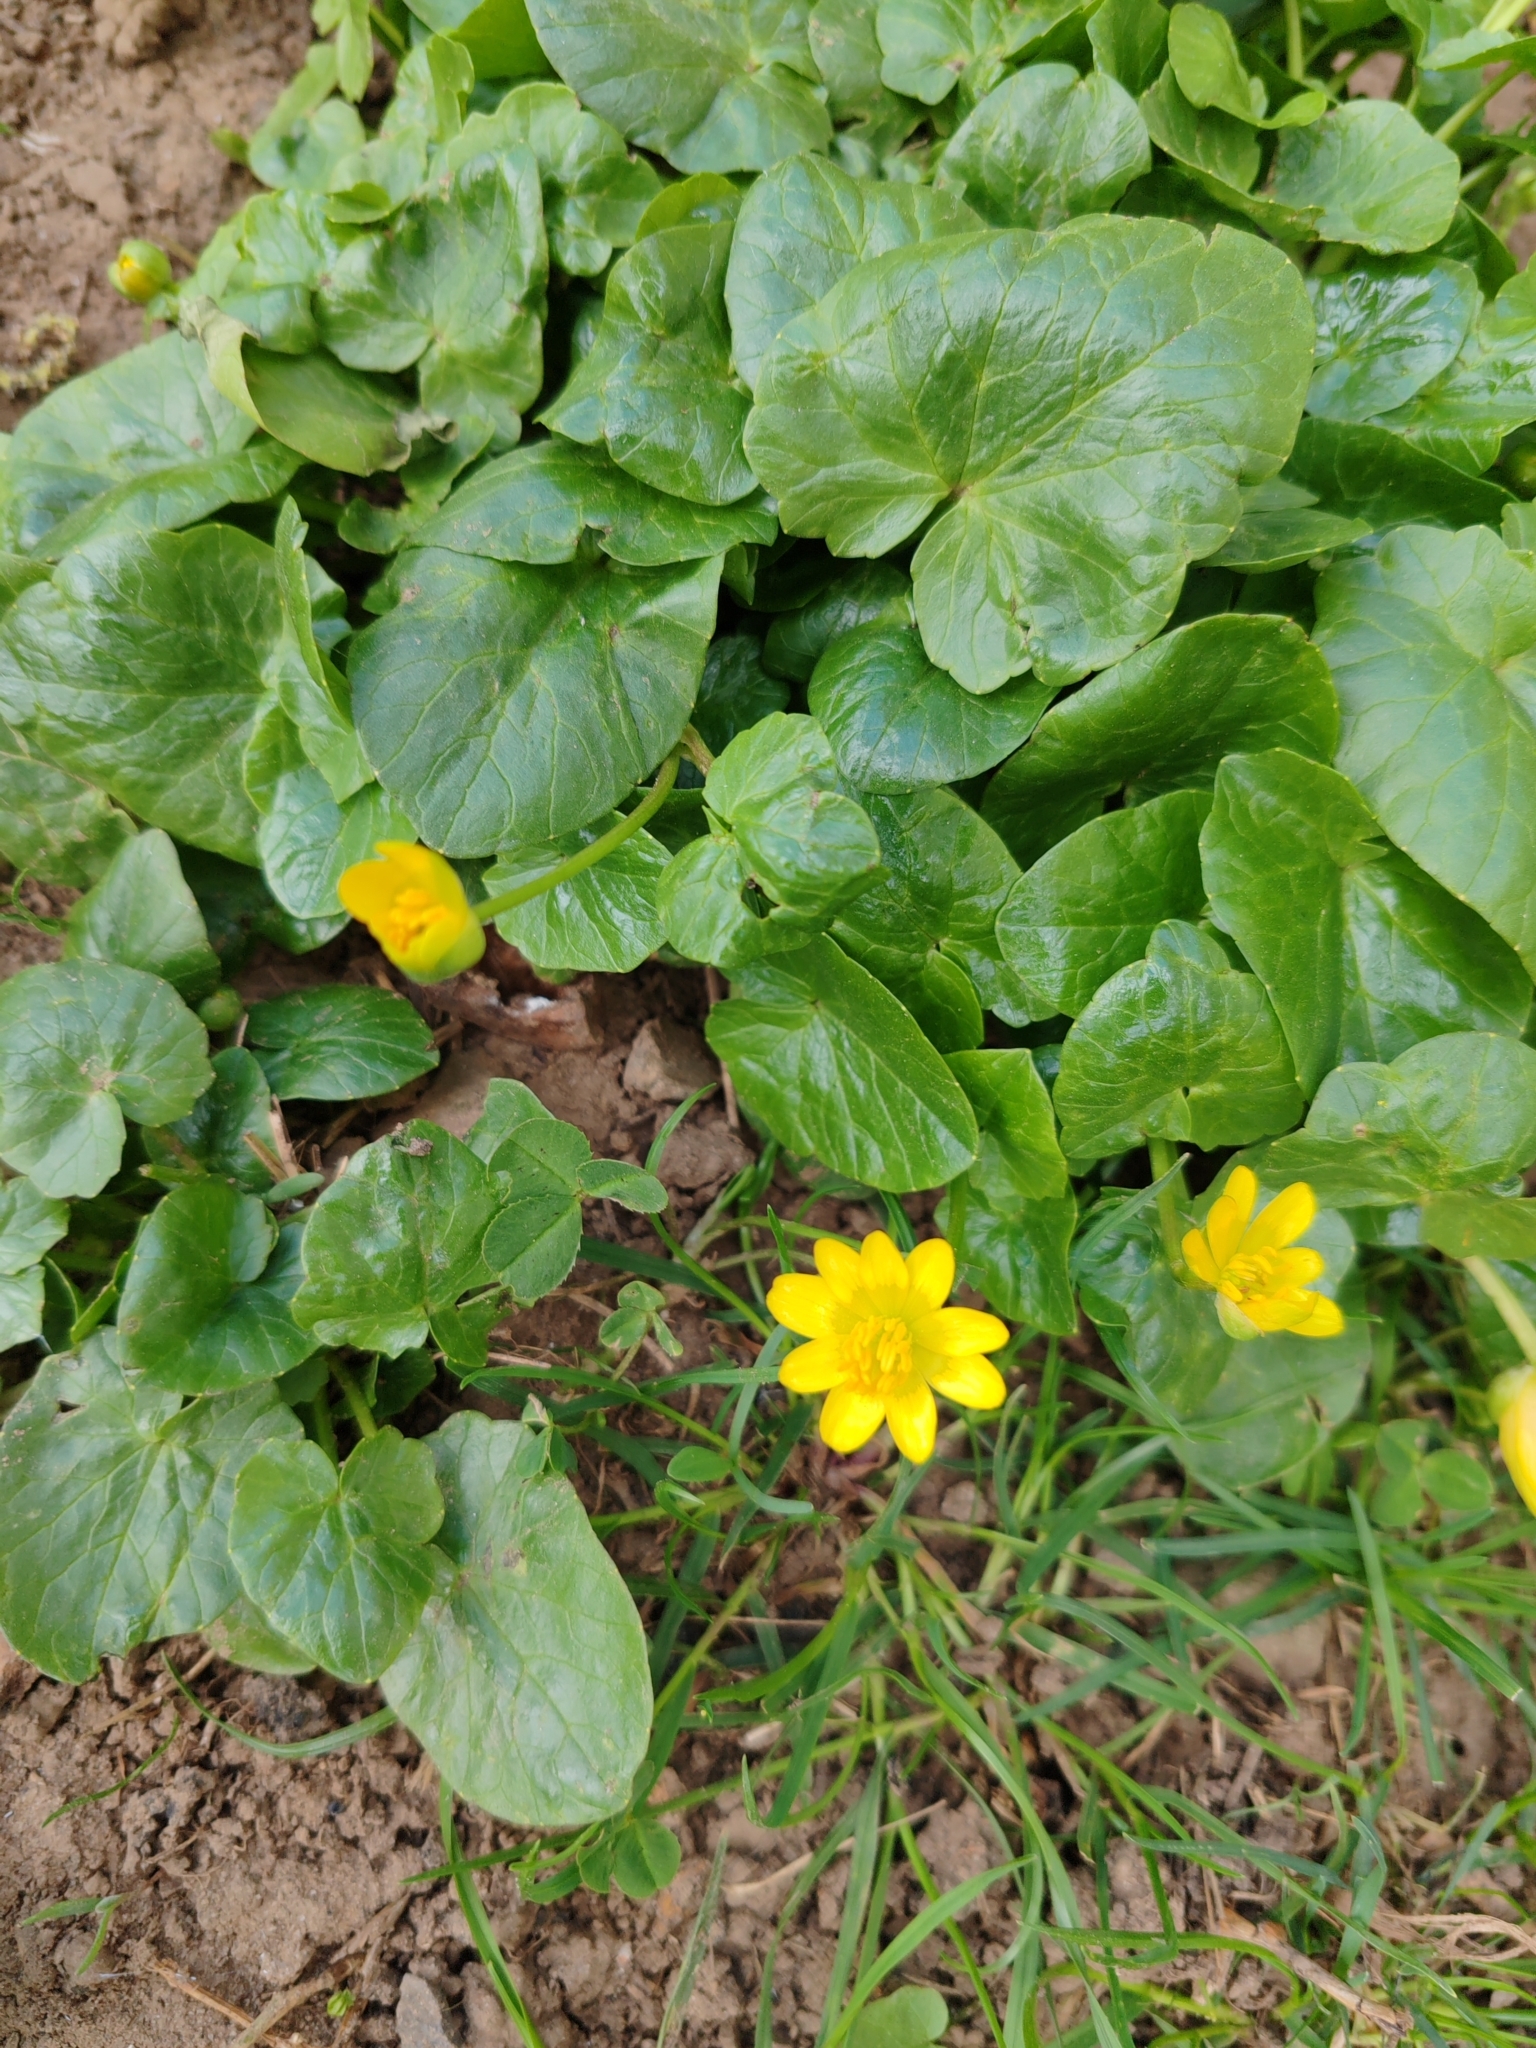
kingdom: Plantae
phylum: Tracheophyta
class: Magnoliopsida
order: Ranunculales
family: Ranunculaceae
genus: Ficaria
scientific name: Ficaria verna
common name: Lesser celandine
